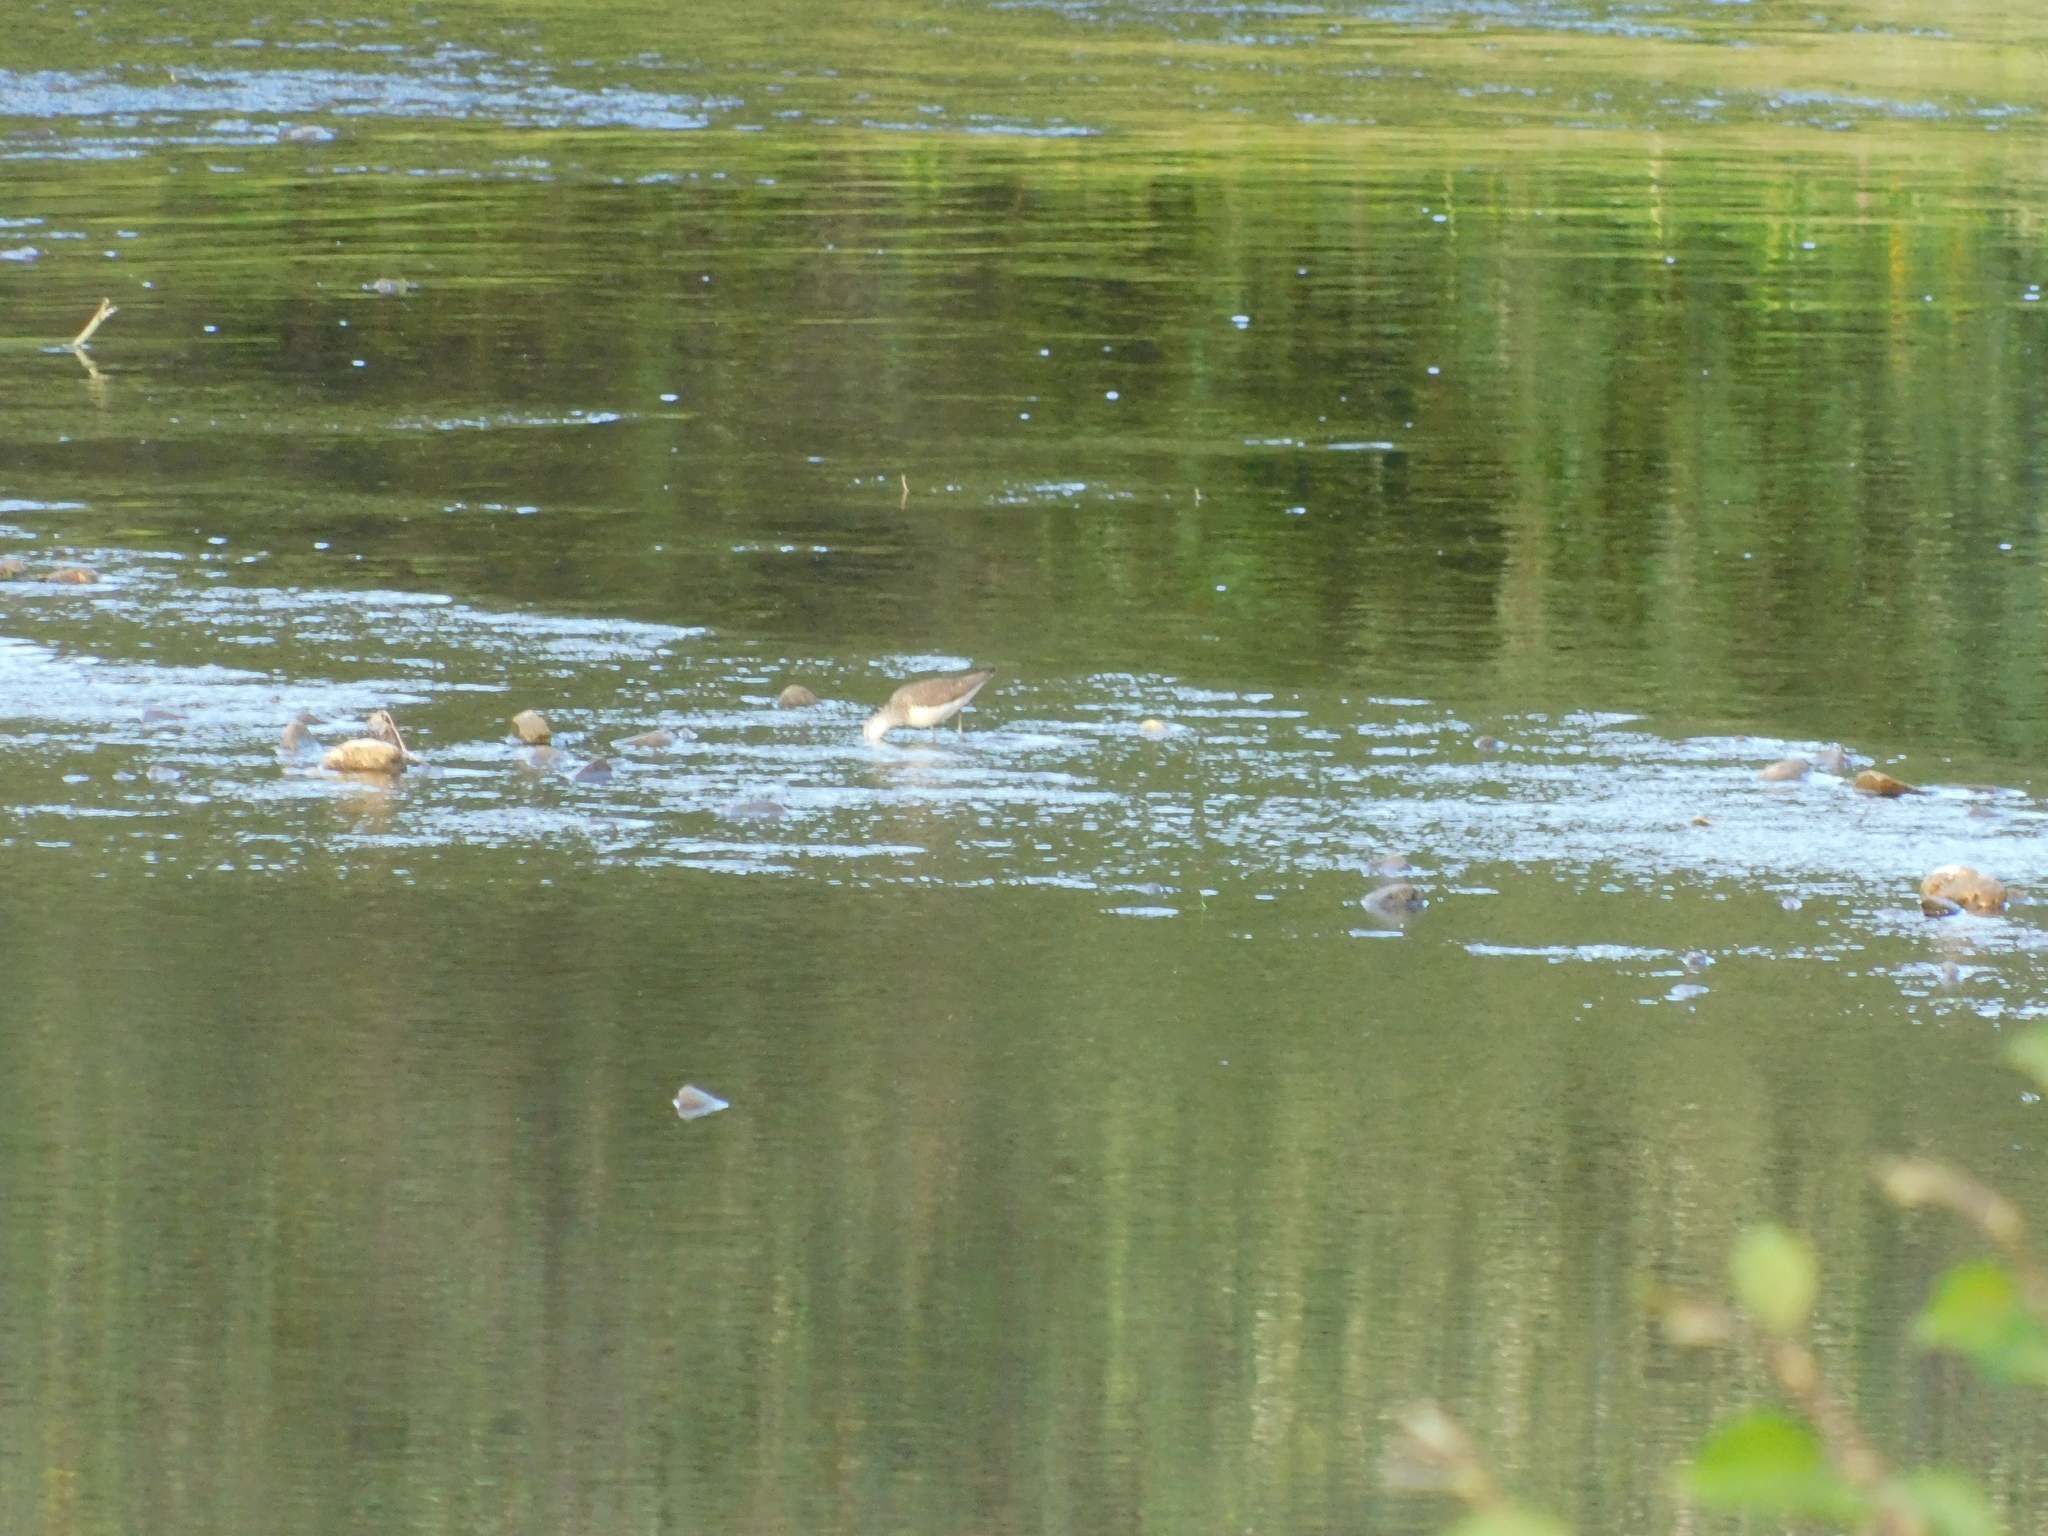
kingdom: Animalia
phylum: Chordata
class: Aves
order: Charadriiformes
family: Scolopacidae
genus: Tringa
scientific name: Tringa ochropus
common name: Green sandpiper
